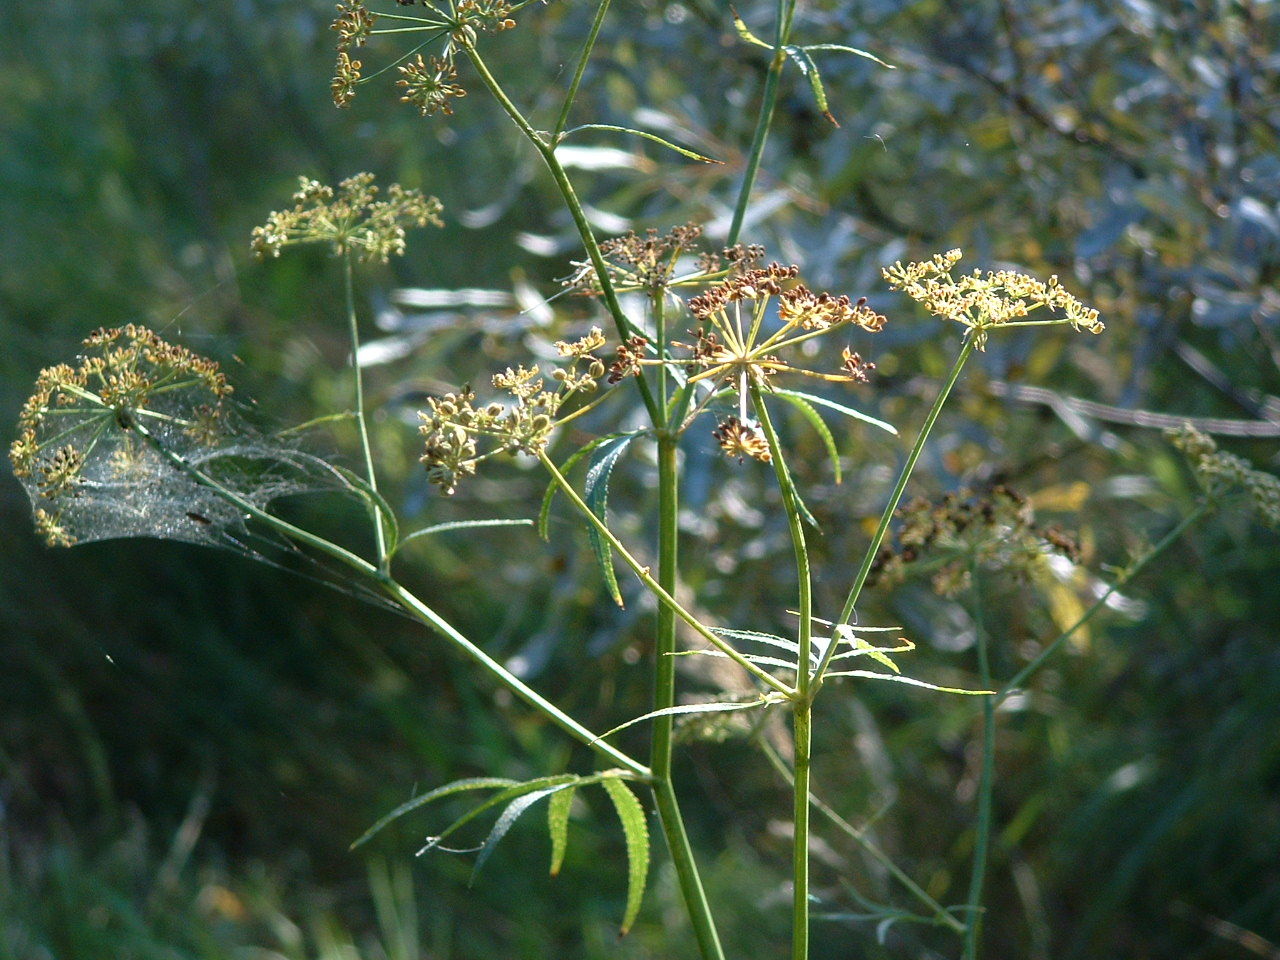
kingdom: Plantae
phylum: Tracheophyta
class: Magnoliopsida
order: Apiales
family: Apiaceae
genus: Sium
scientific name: Sium suave
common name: Hemlock water-parsnip
